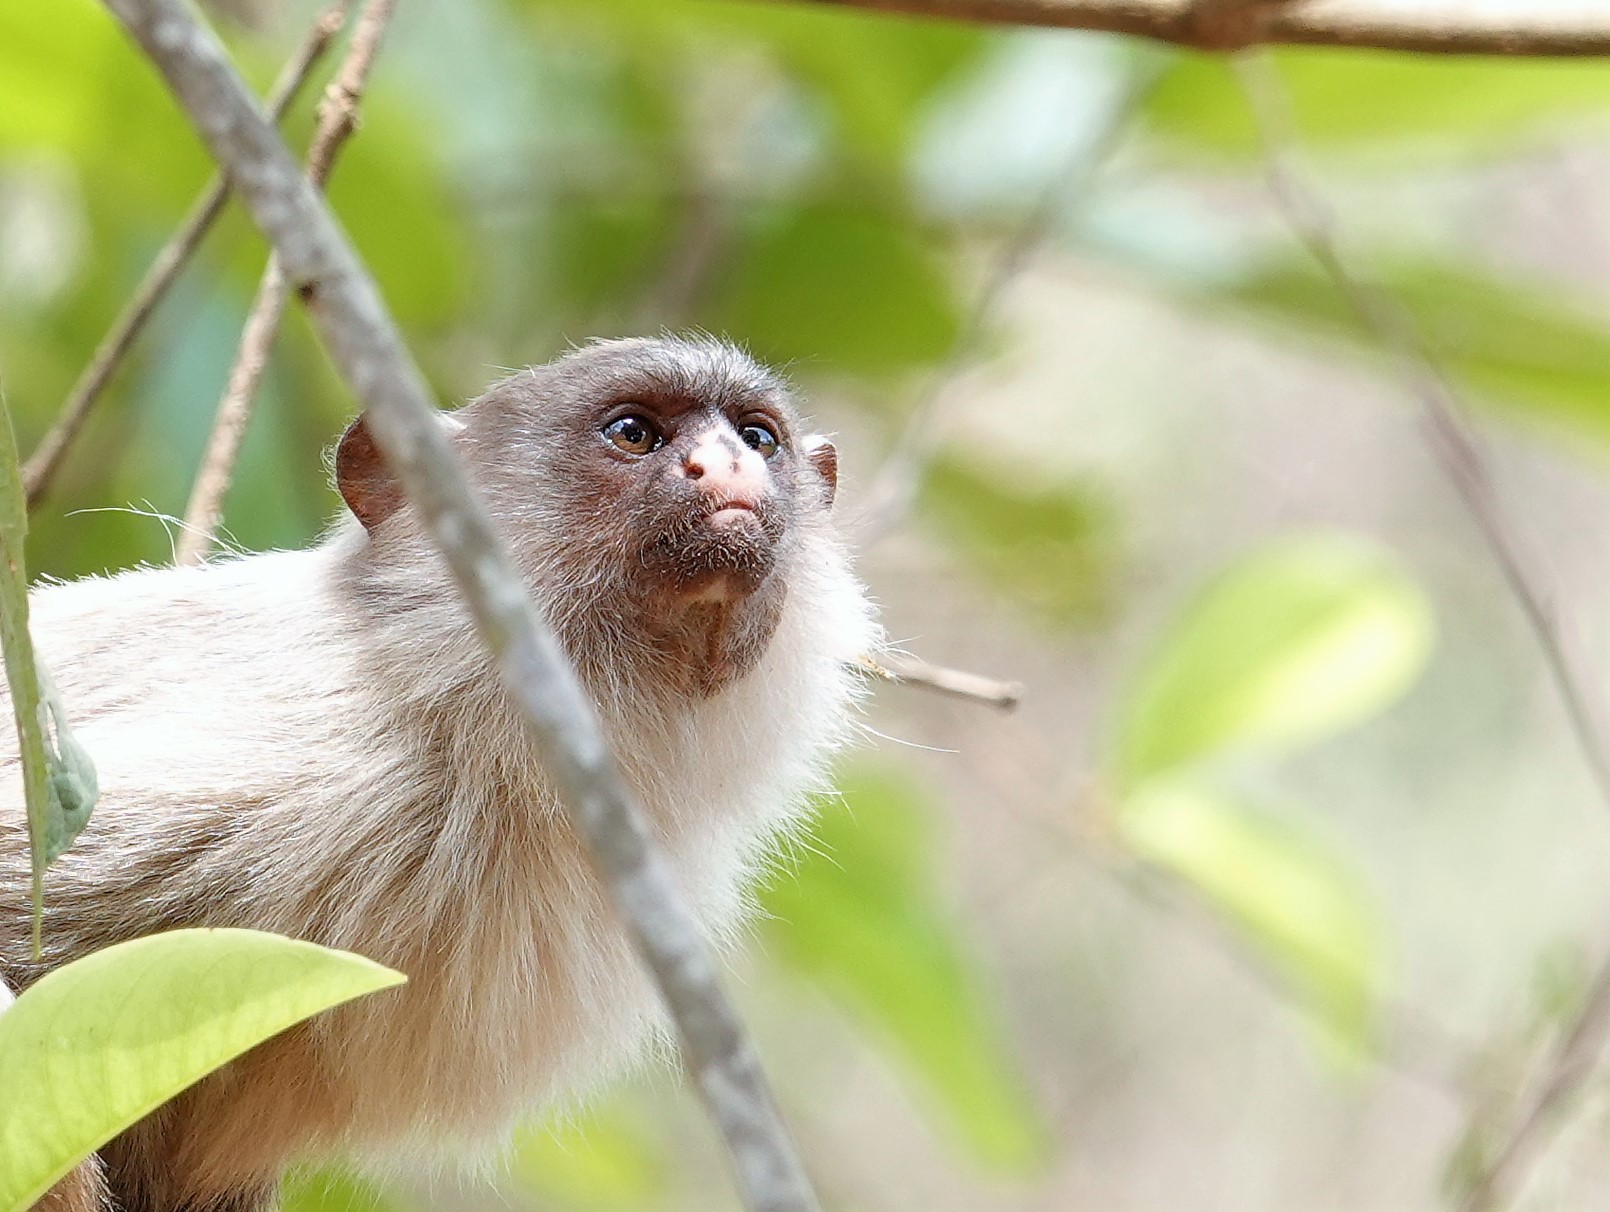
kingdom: Animalia
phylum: Chordata
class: Mammalia
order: Primates
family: Callitrichidae
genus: Mico
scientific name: Mico melanurus
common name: Black-tailed marmoset
